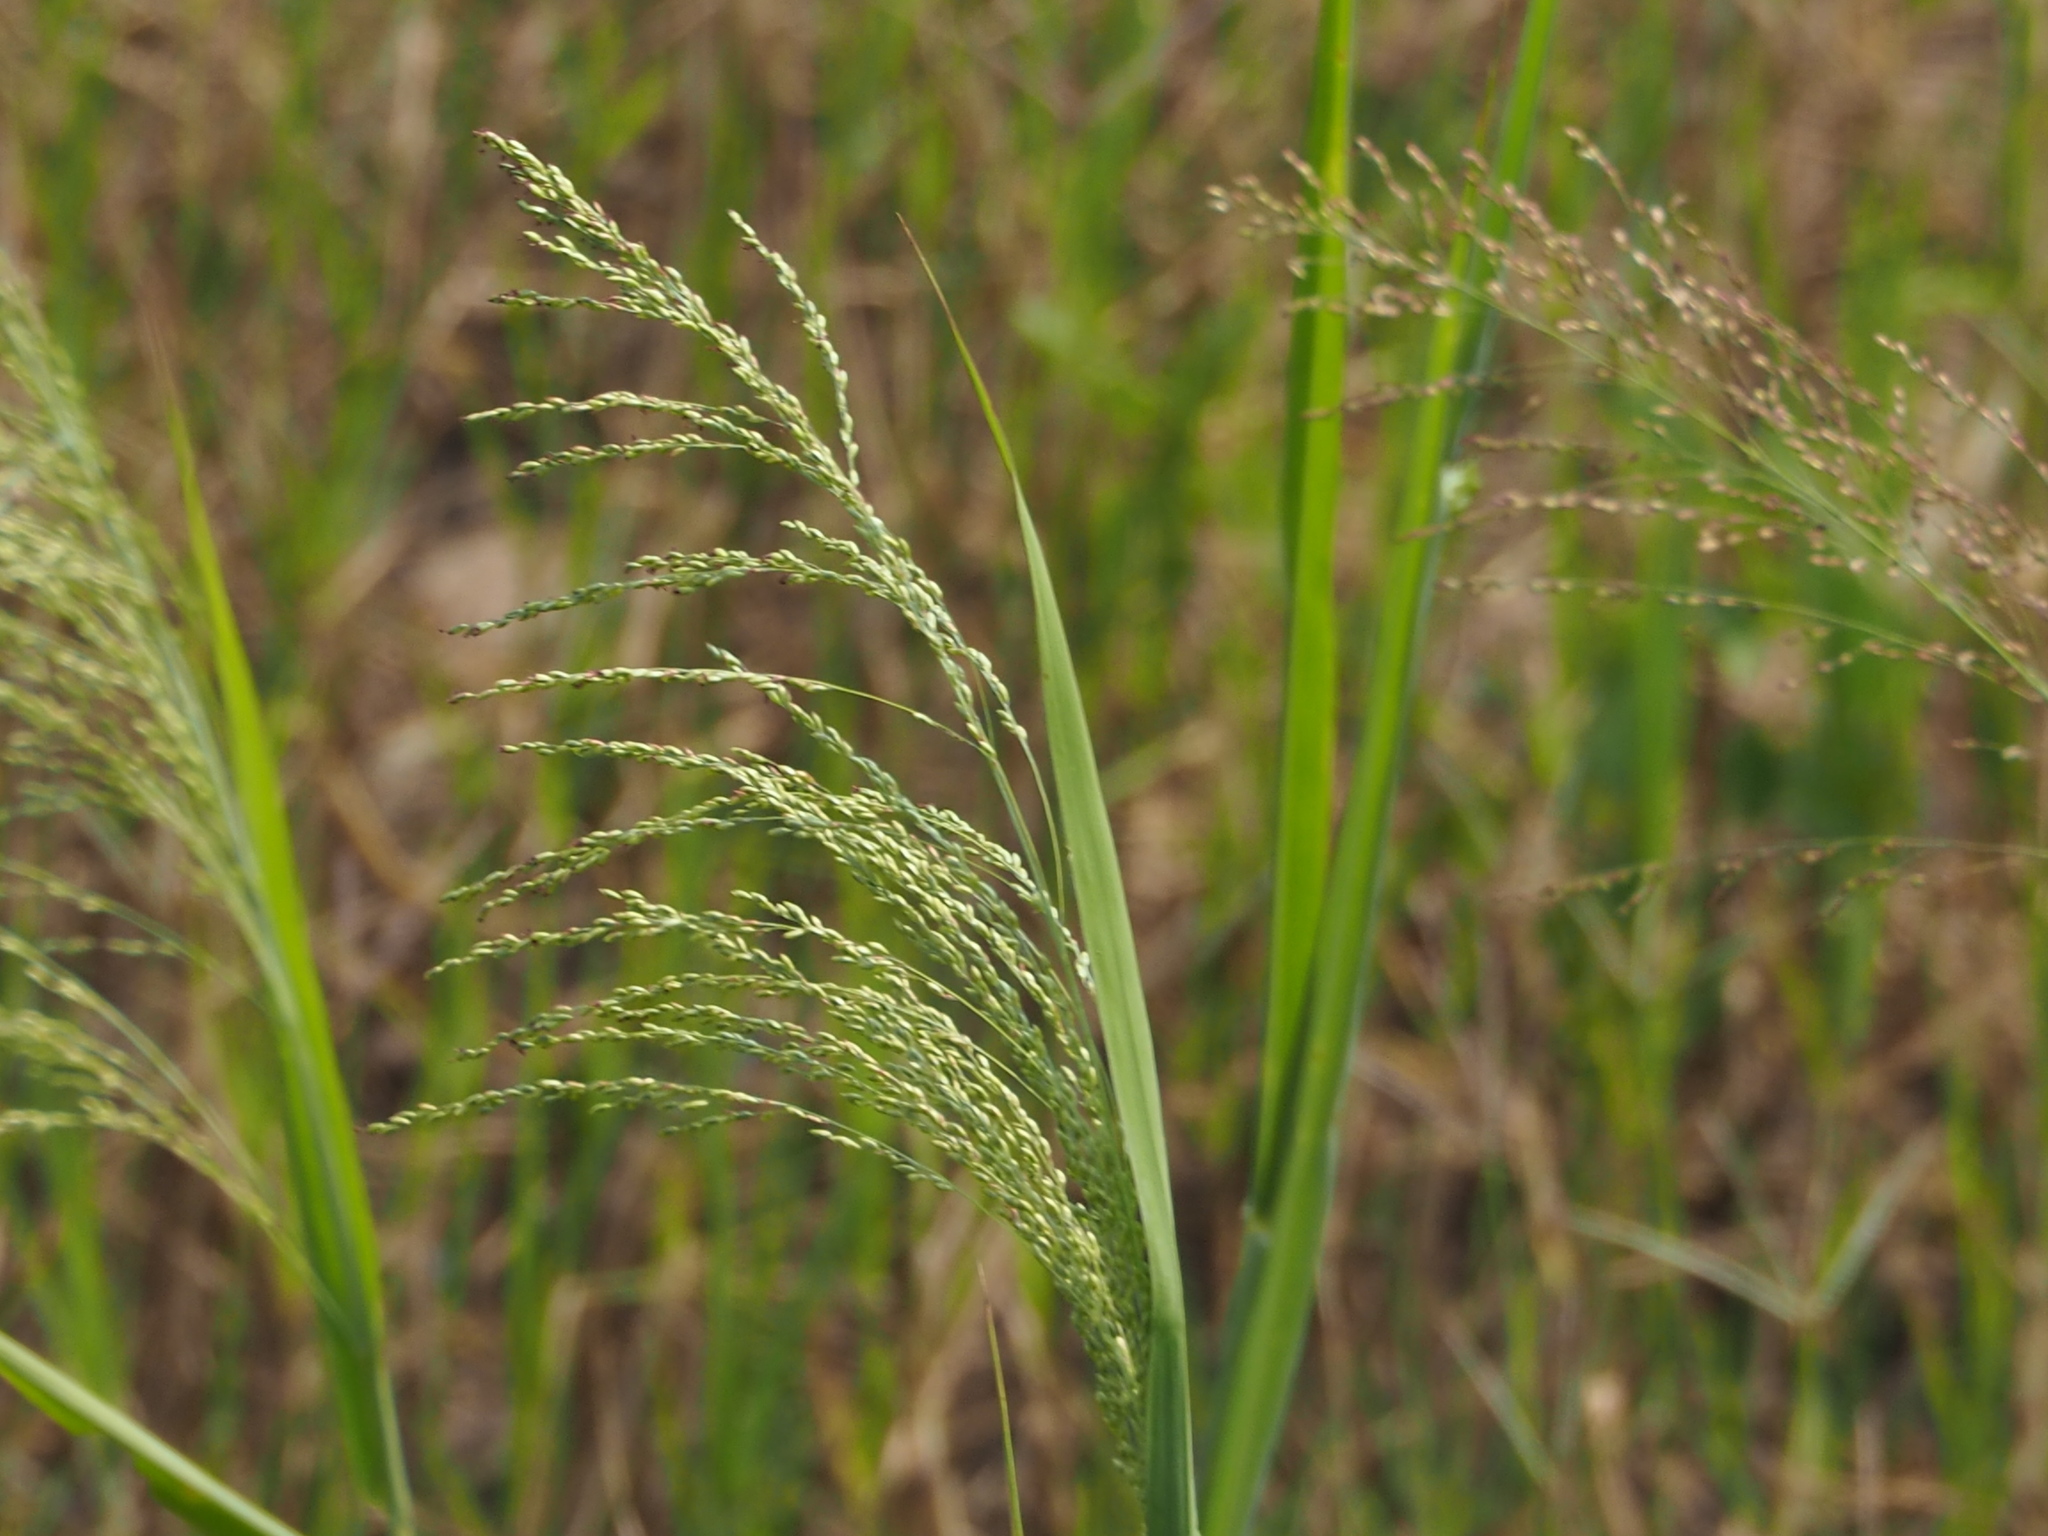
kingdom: Plantae
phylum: Tracheophyta
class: Liliopsida
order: Poales
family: Poaceae
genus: Megathyrsus
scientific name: Megathyrsus maximus
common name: Guineagrass
